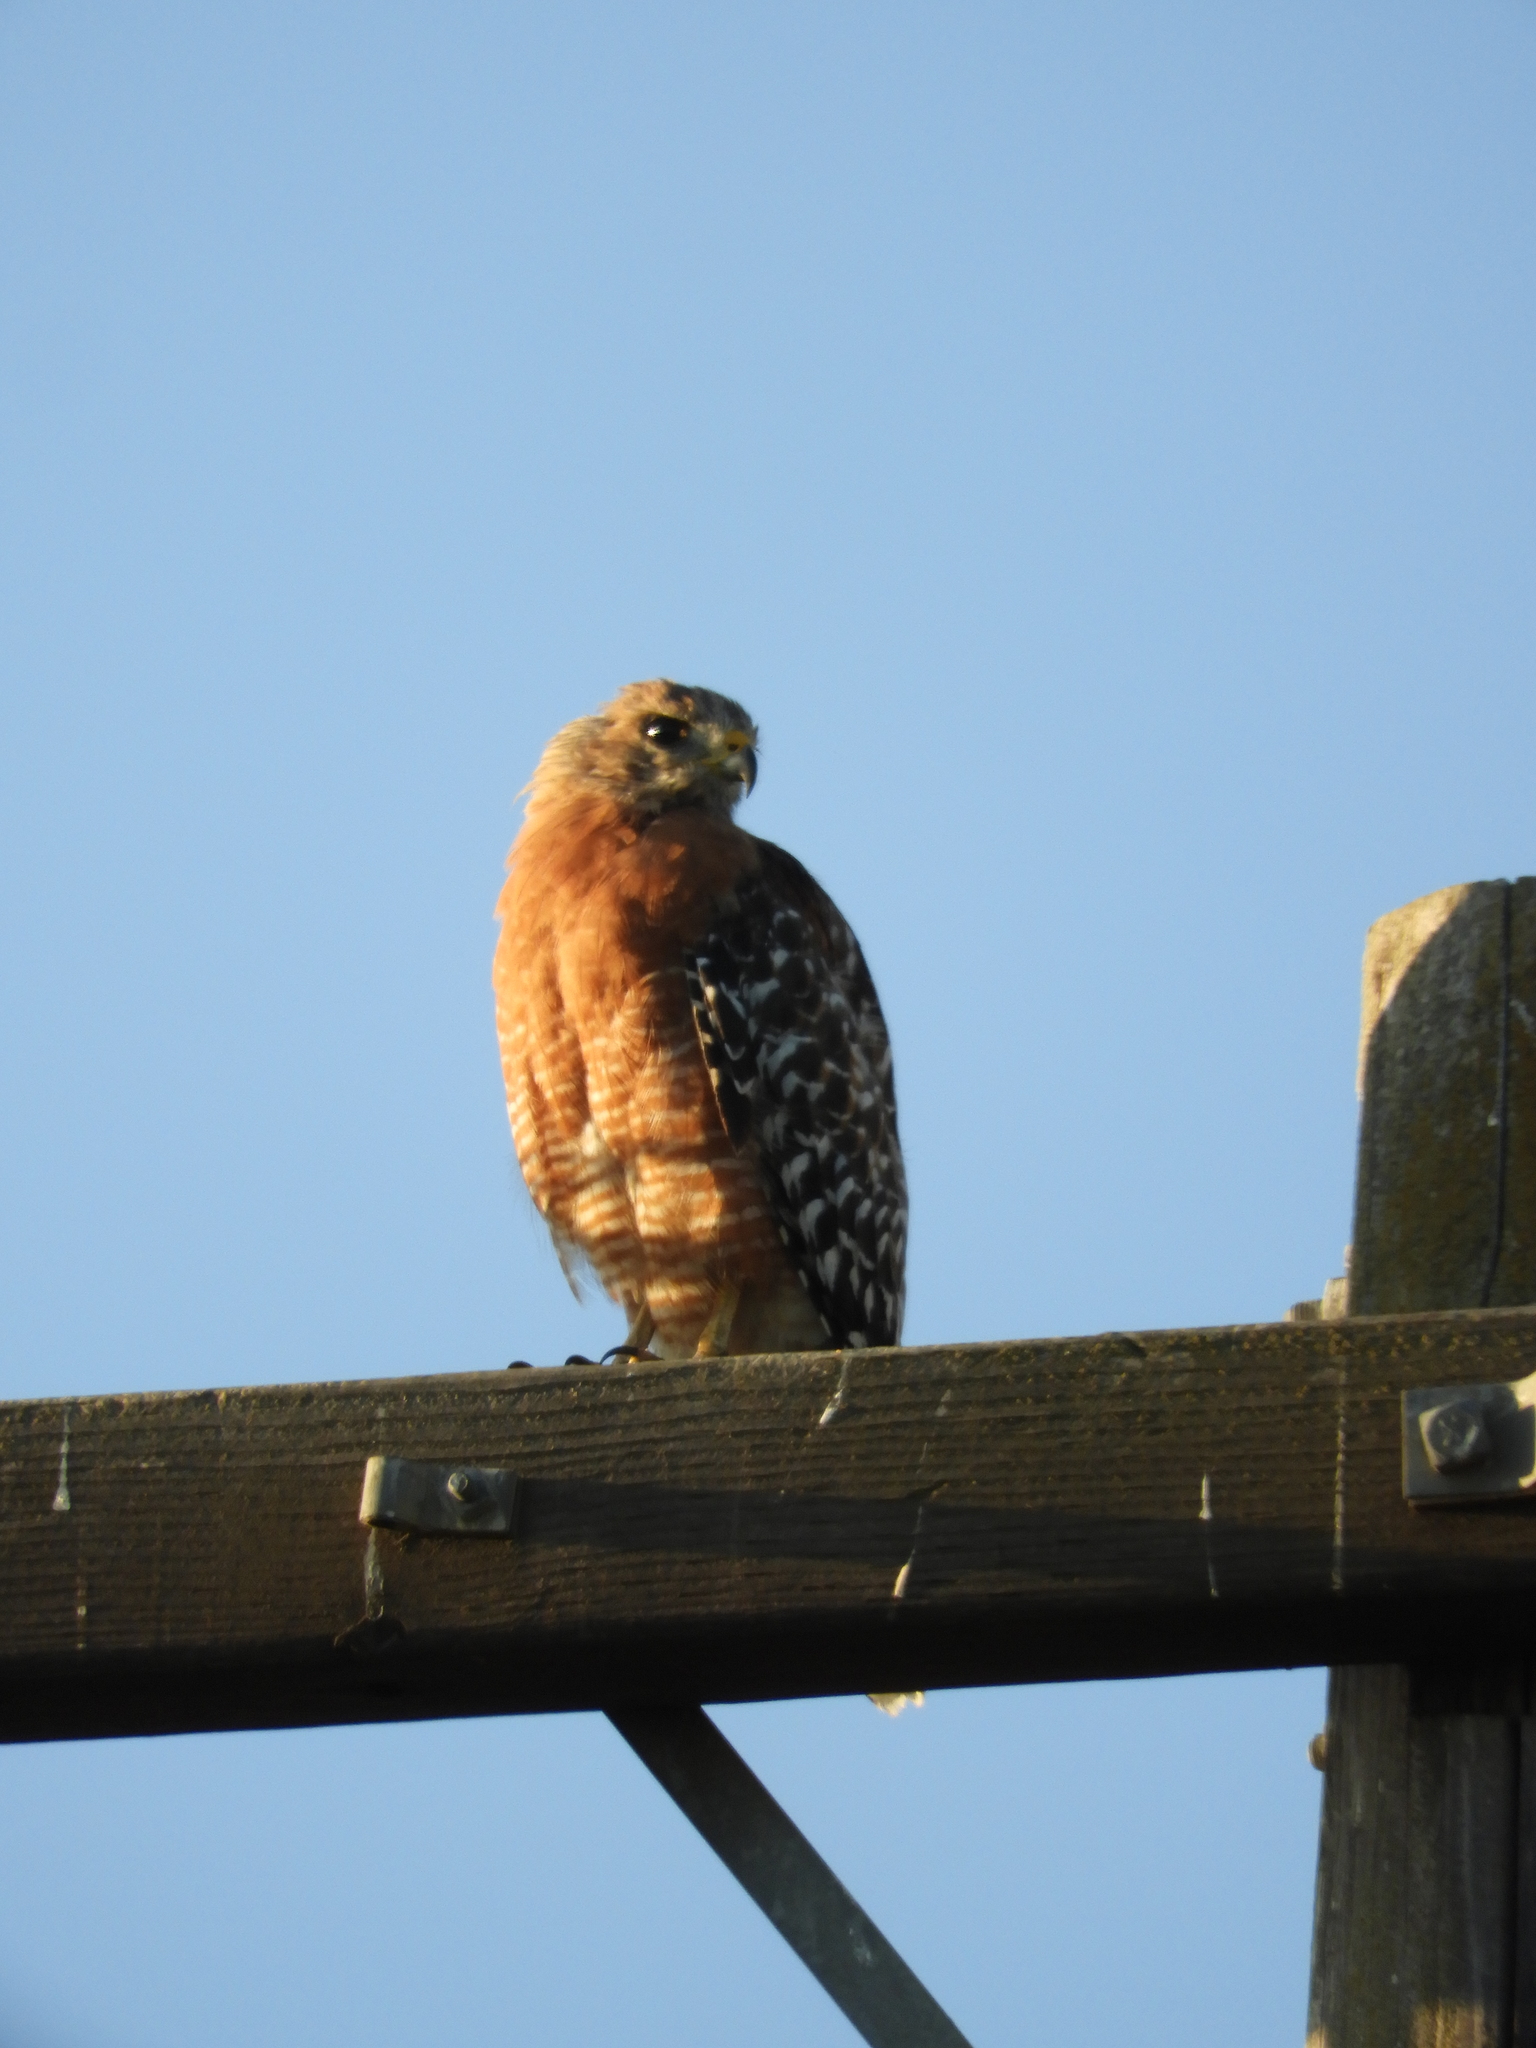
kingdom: Animalia
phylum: Chordata
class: Aves
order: Accipitriformes
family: Accipitridae
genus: Buteo
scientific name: Buteo lineatus
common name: Red-shouldered hawk
